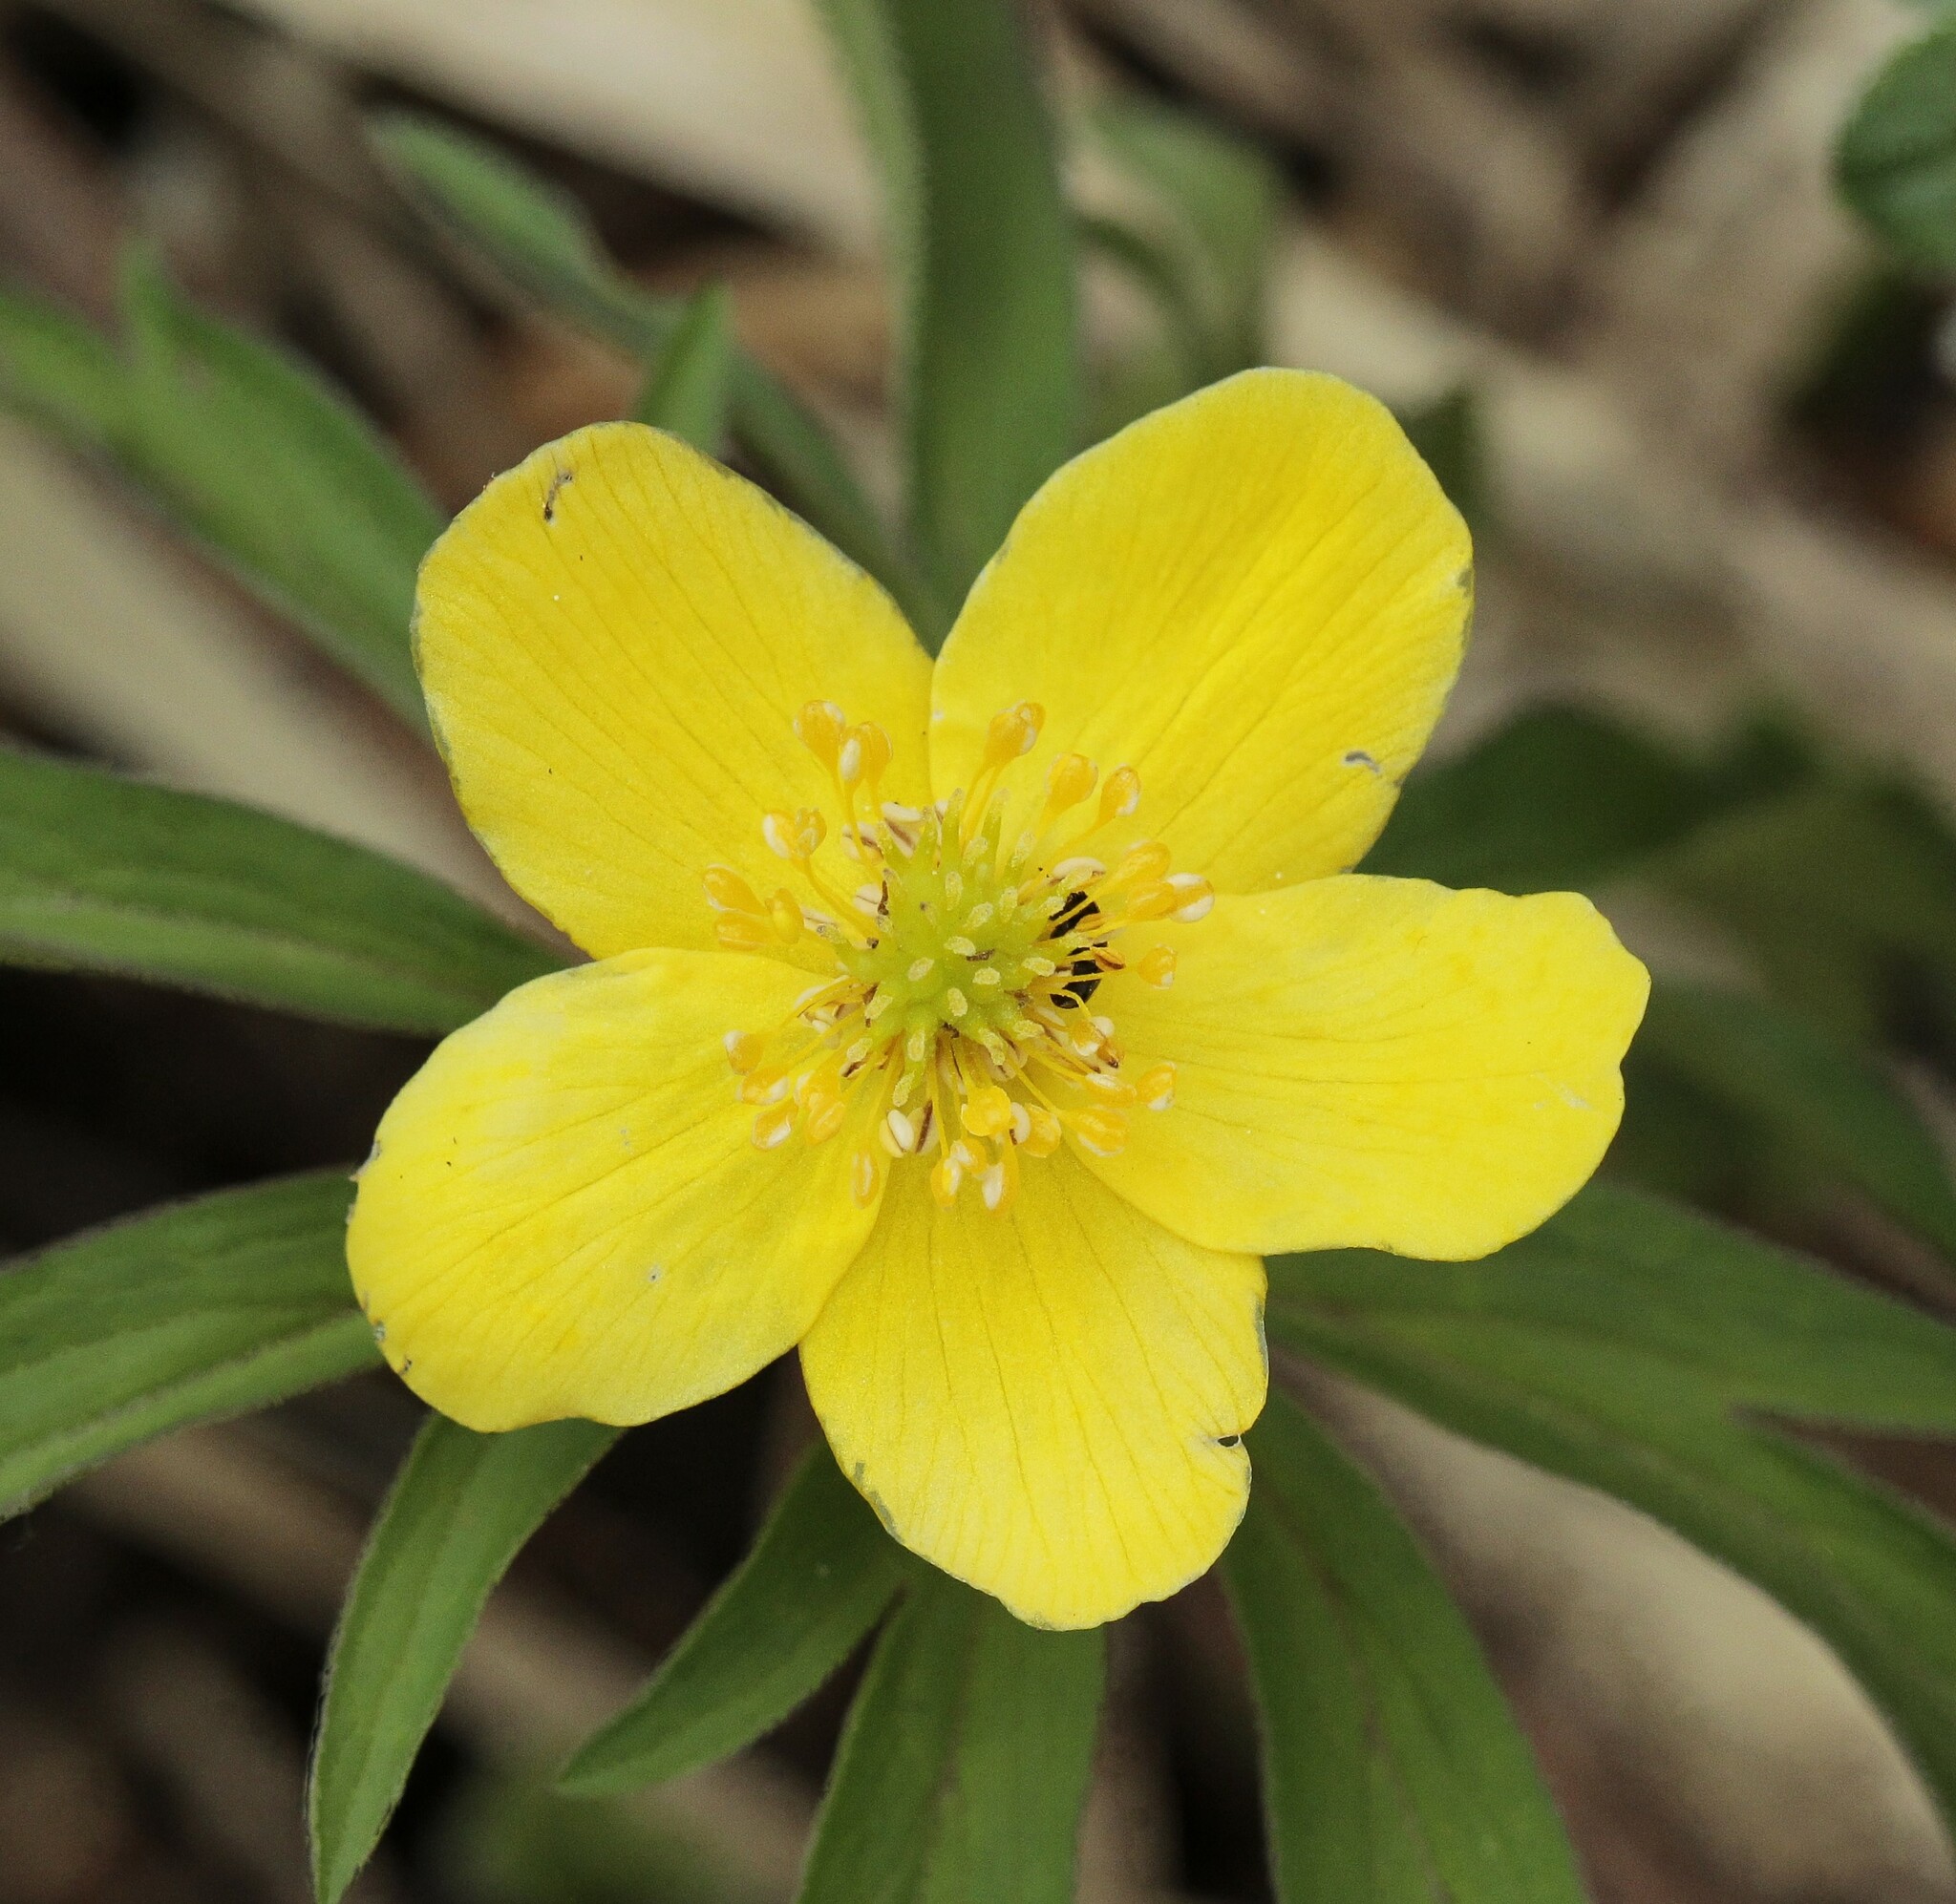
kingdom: Plantae
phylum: Tracheophyta
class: Magnoliopsida
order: Ranunculales
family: Ranunculaceae
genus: Anemone
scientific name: Anemone ranunculoides
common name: Yellow anemone
